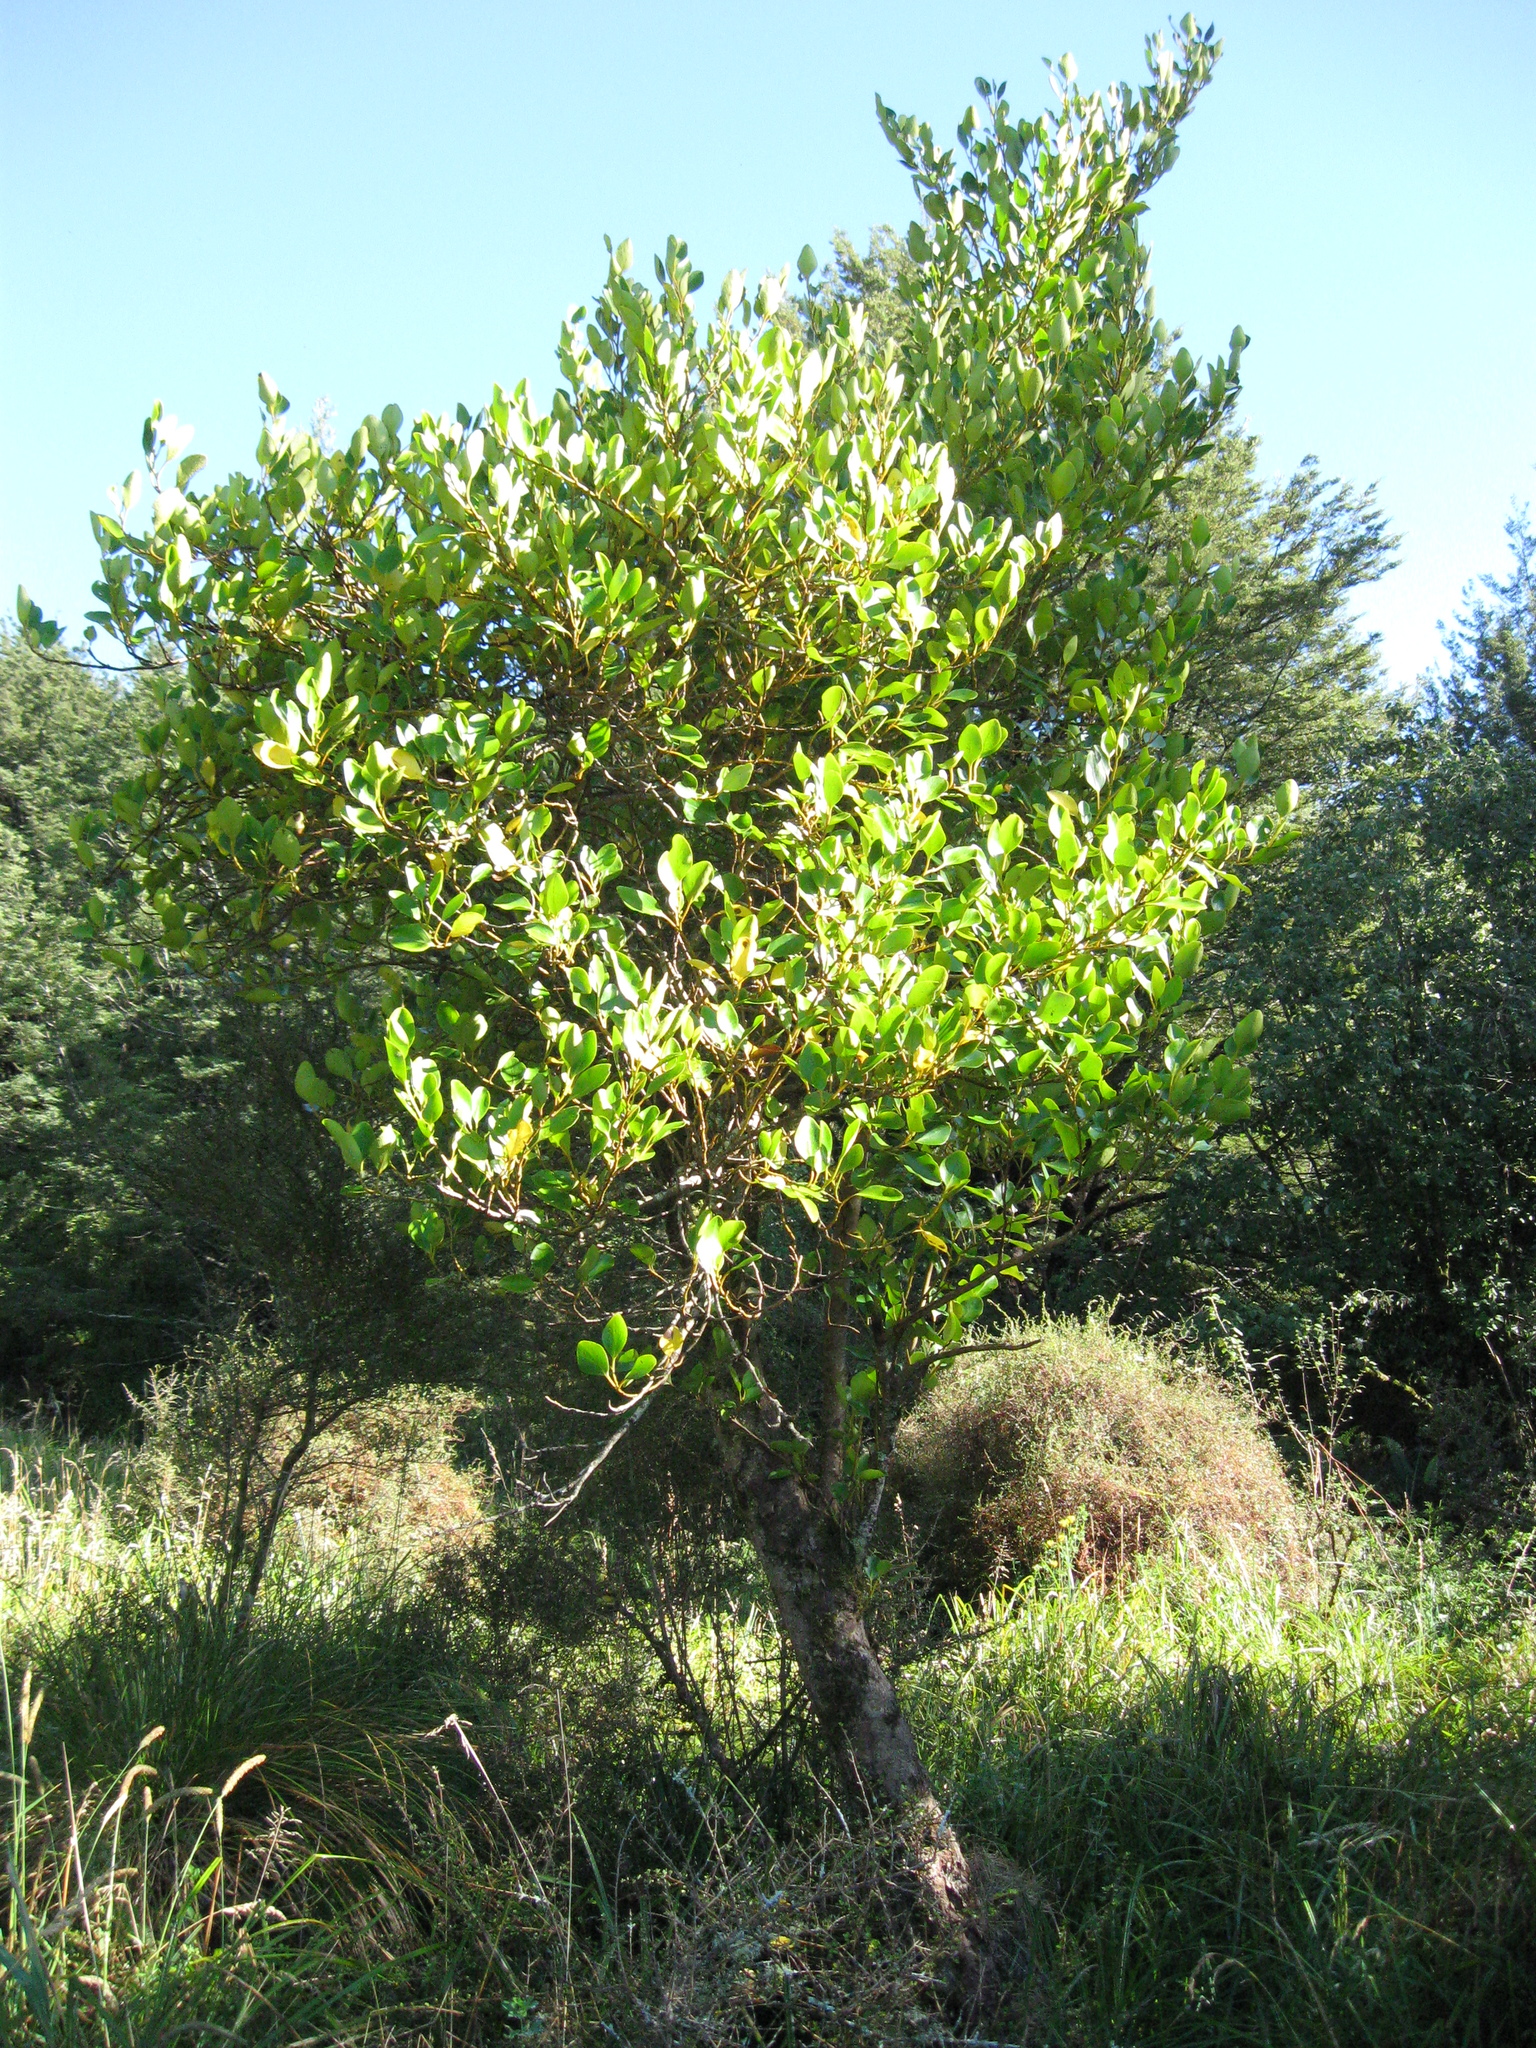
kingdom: Plantae
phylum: Tracheophyta
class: Magnoliopsida
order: Apiales
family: Griseliniaceae
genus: Griselinia
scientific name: Griselinia littoralis
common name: New zealand broadleaf
